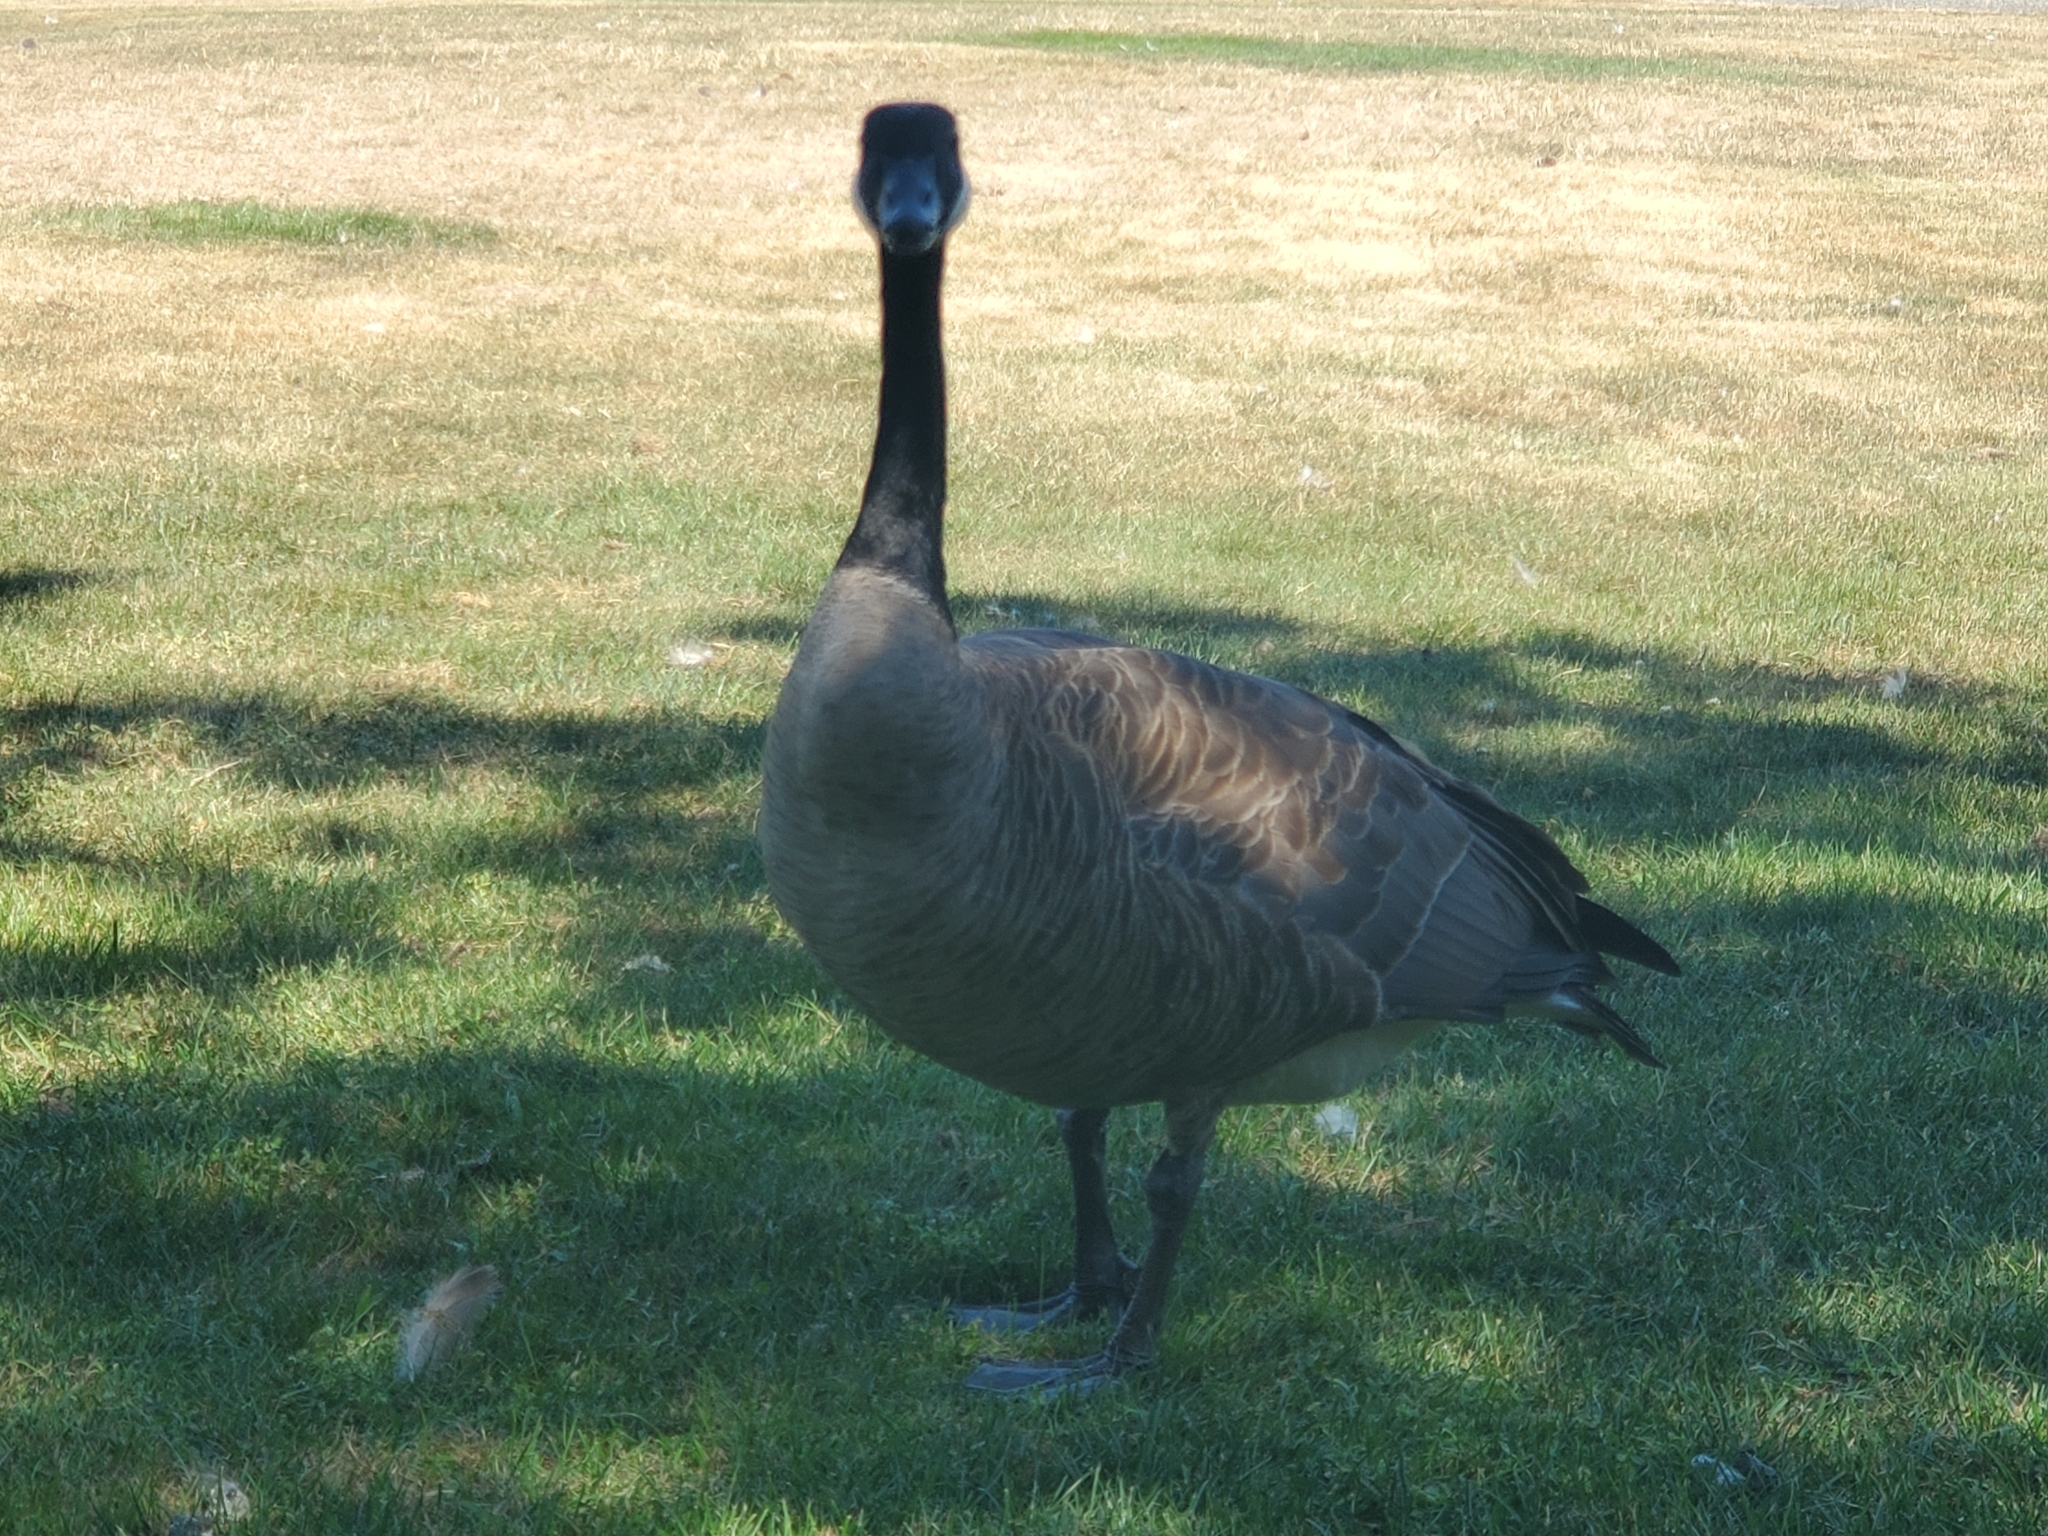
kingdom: Animalia
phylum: Chordata
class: Aves
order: Anseriformes
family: Anatidae
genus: Branta
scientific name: Branta canadensis
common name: Canada goose
